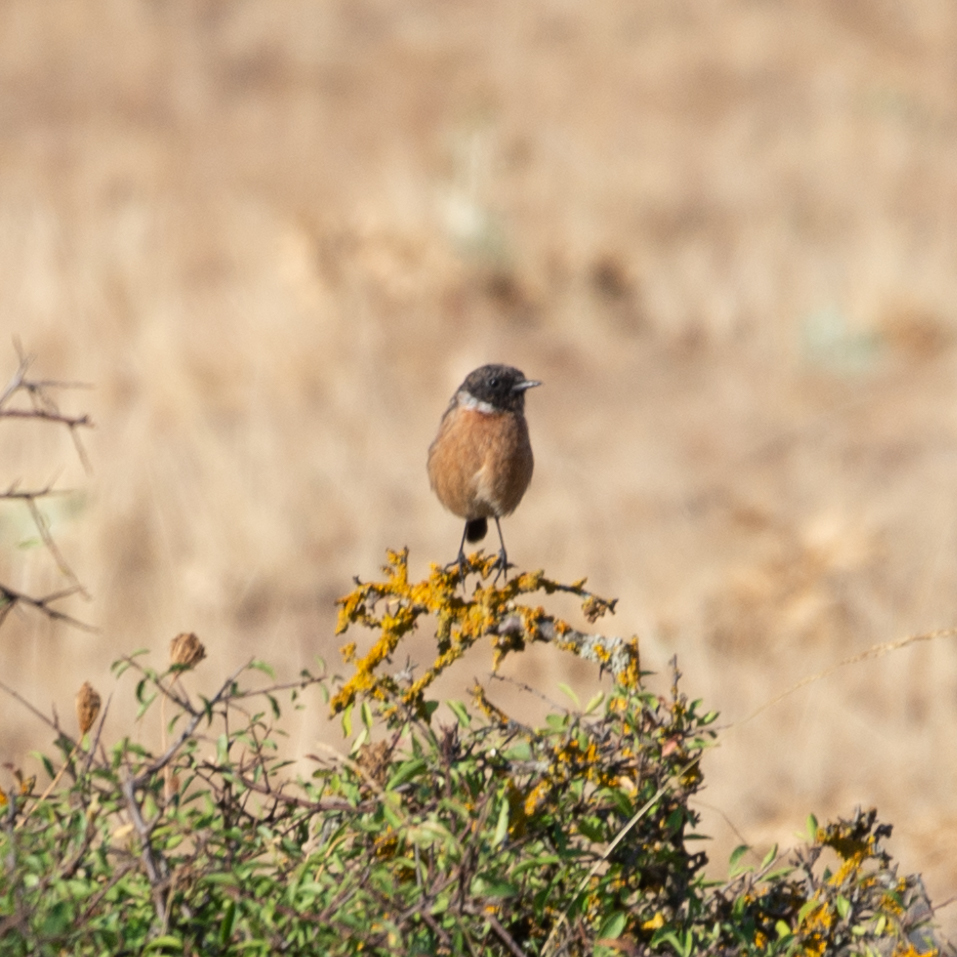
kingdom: Animalia
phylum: Chordata
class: Aves
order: Passeriformes
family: Muscicapidae
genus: Saxicola
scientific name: Saxicola rubicola
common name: European stonechat
